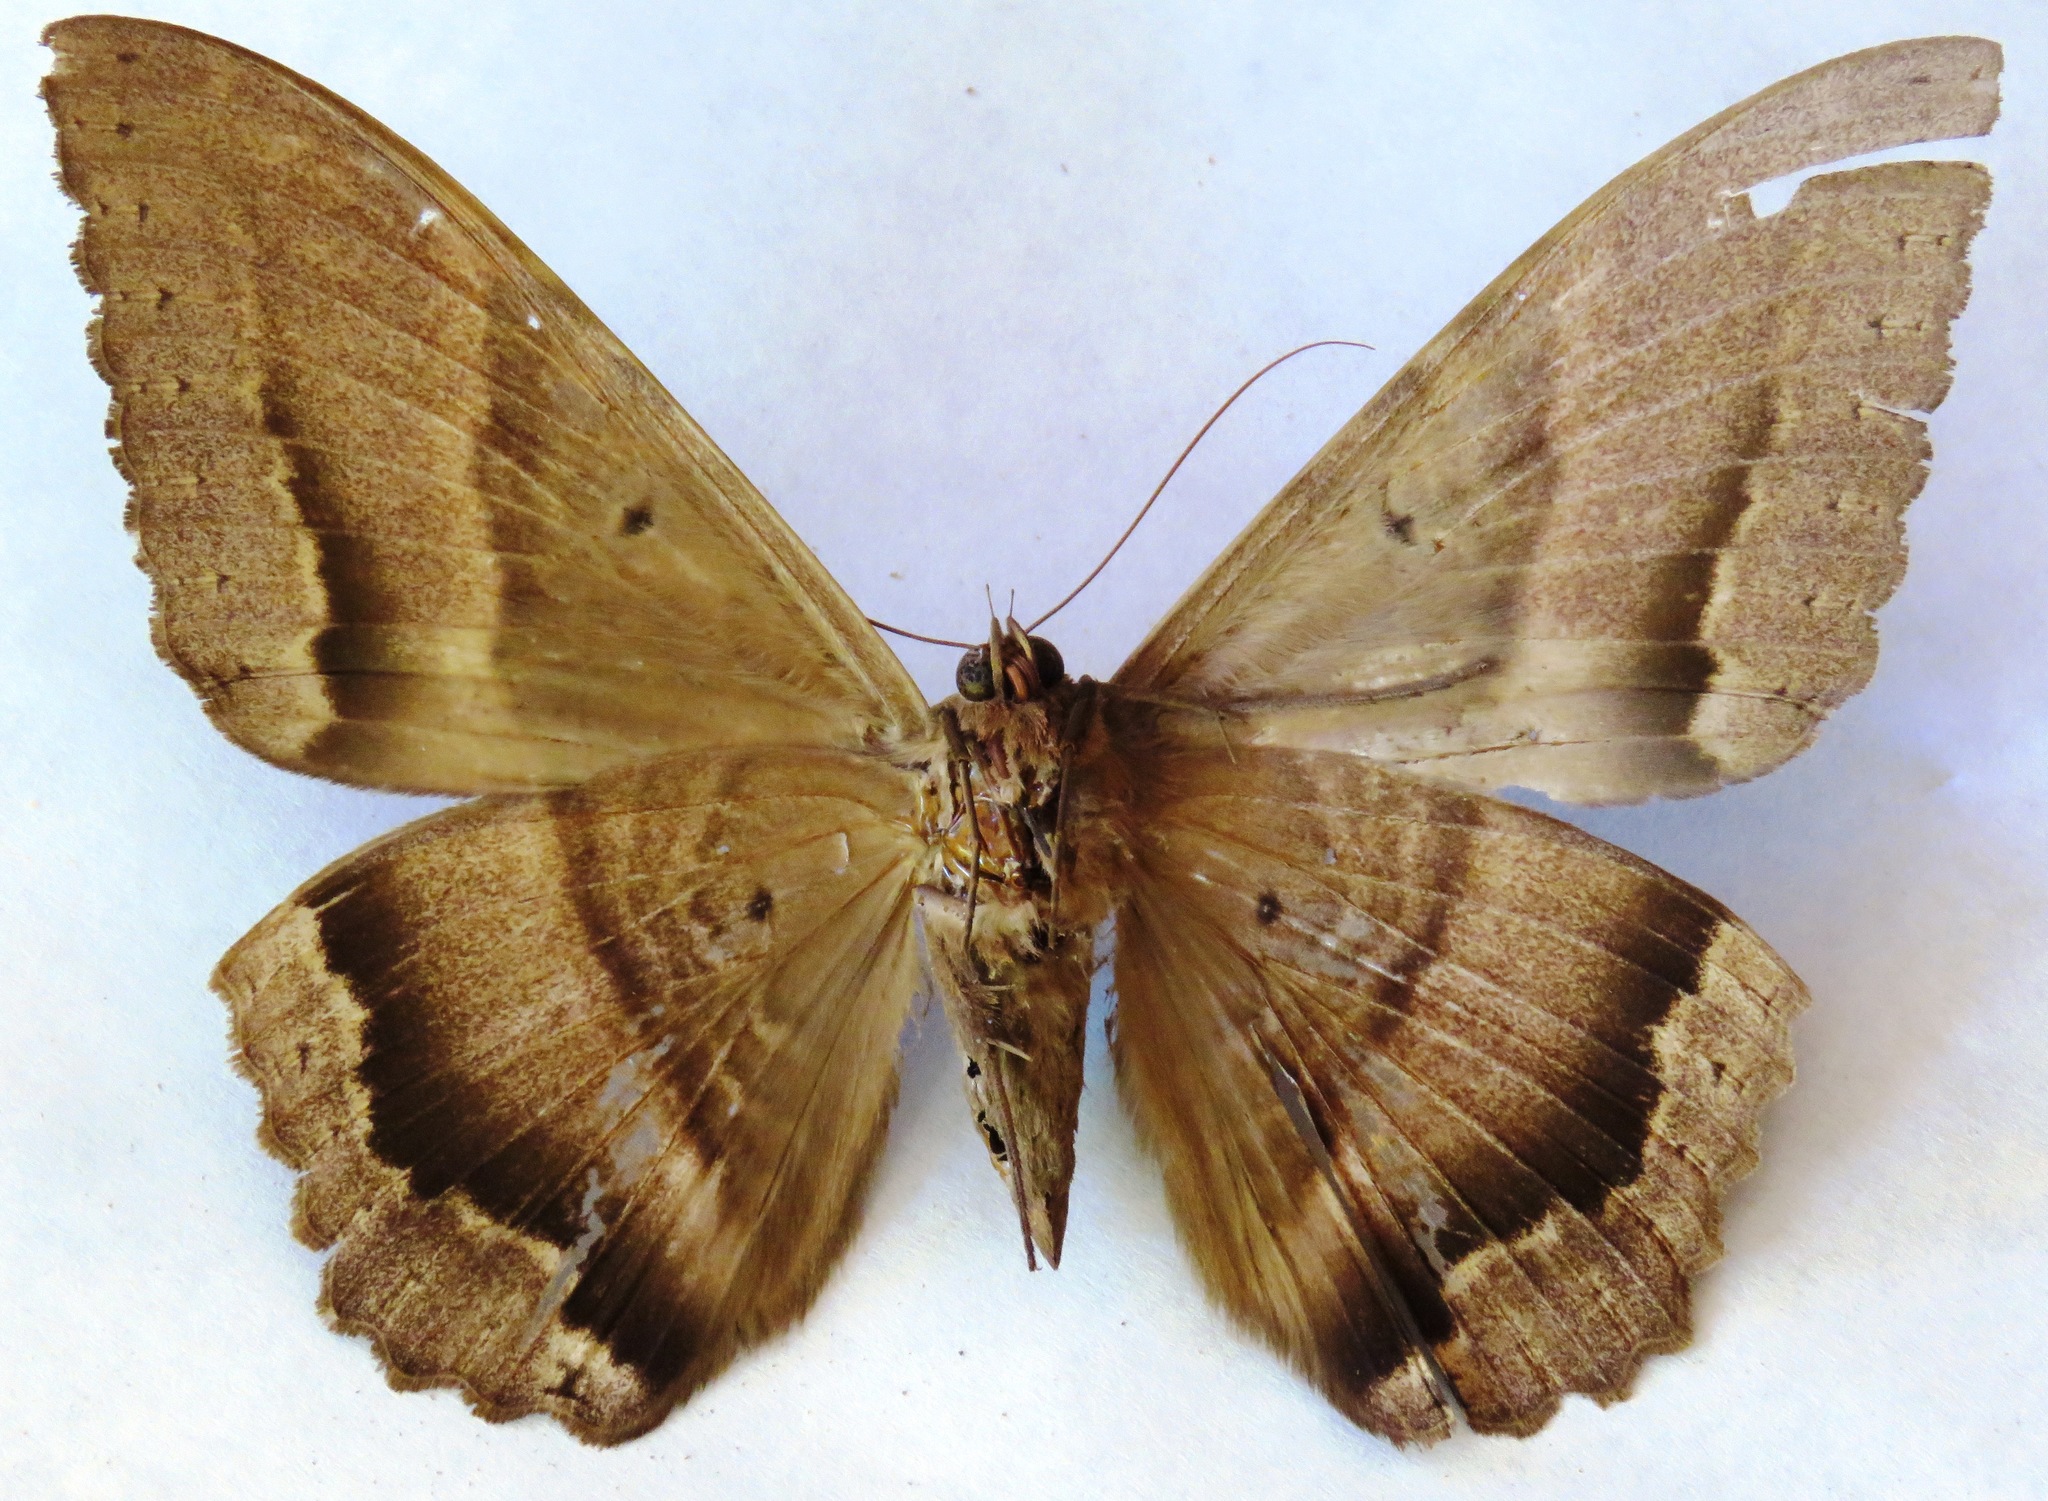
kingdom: Animalia
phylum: Arthropoda
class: Insecta
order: Lepidoptera
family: Erebidae
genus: Ascalapha
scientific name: Ascalapha odorata
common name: Black witch
